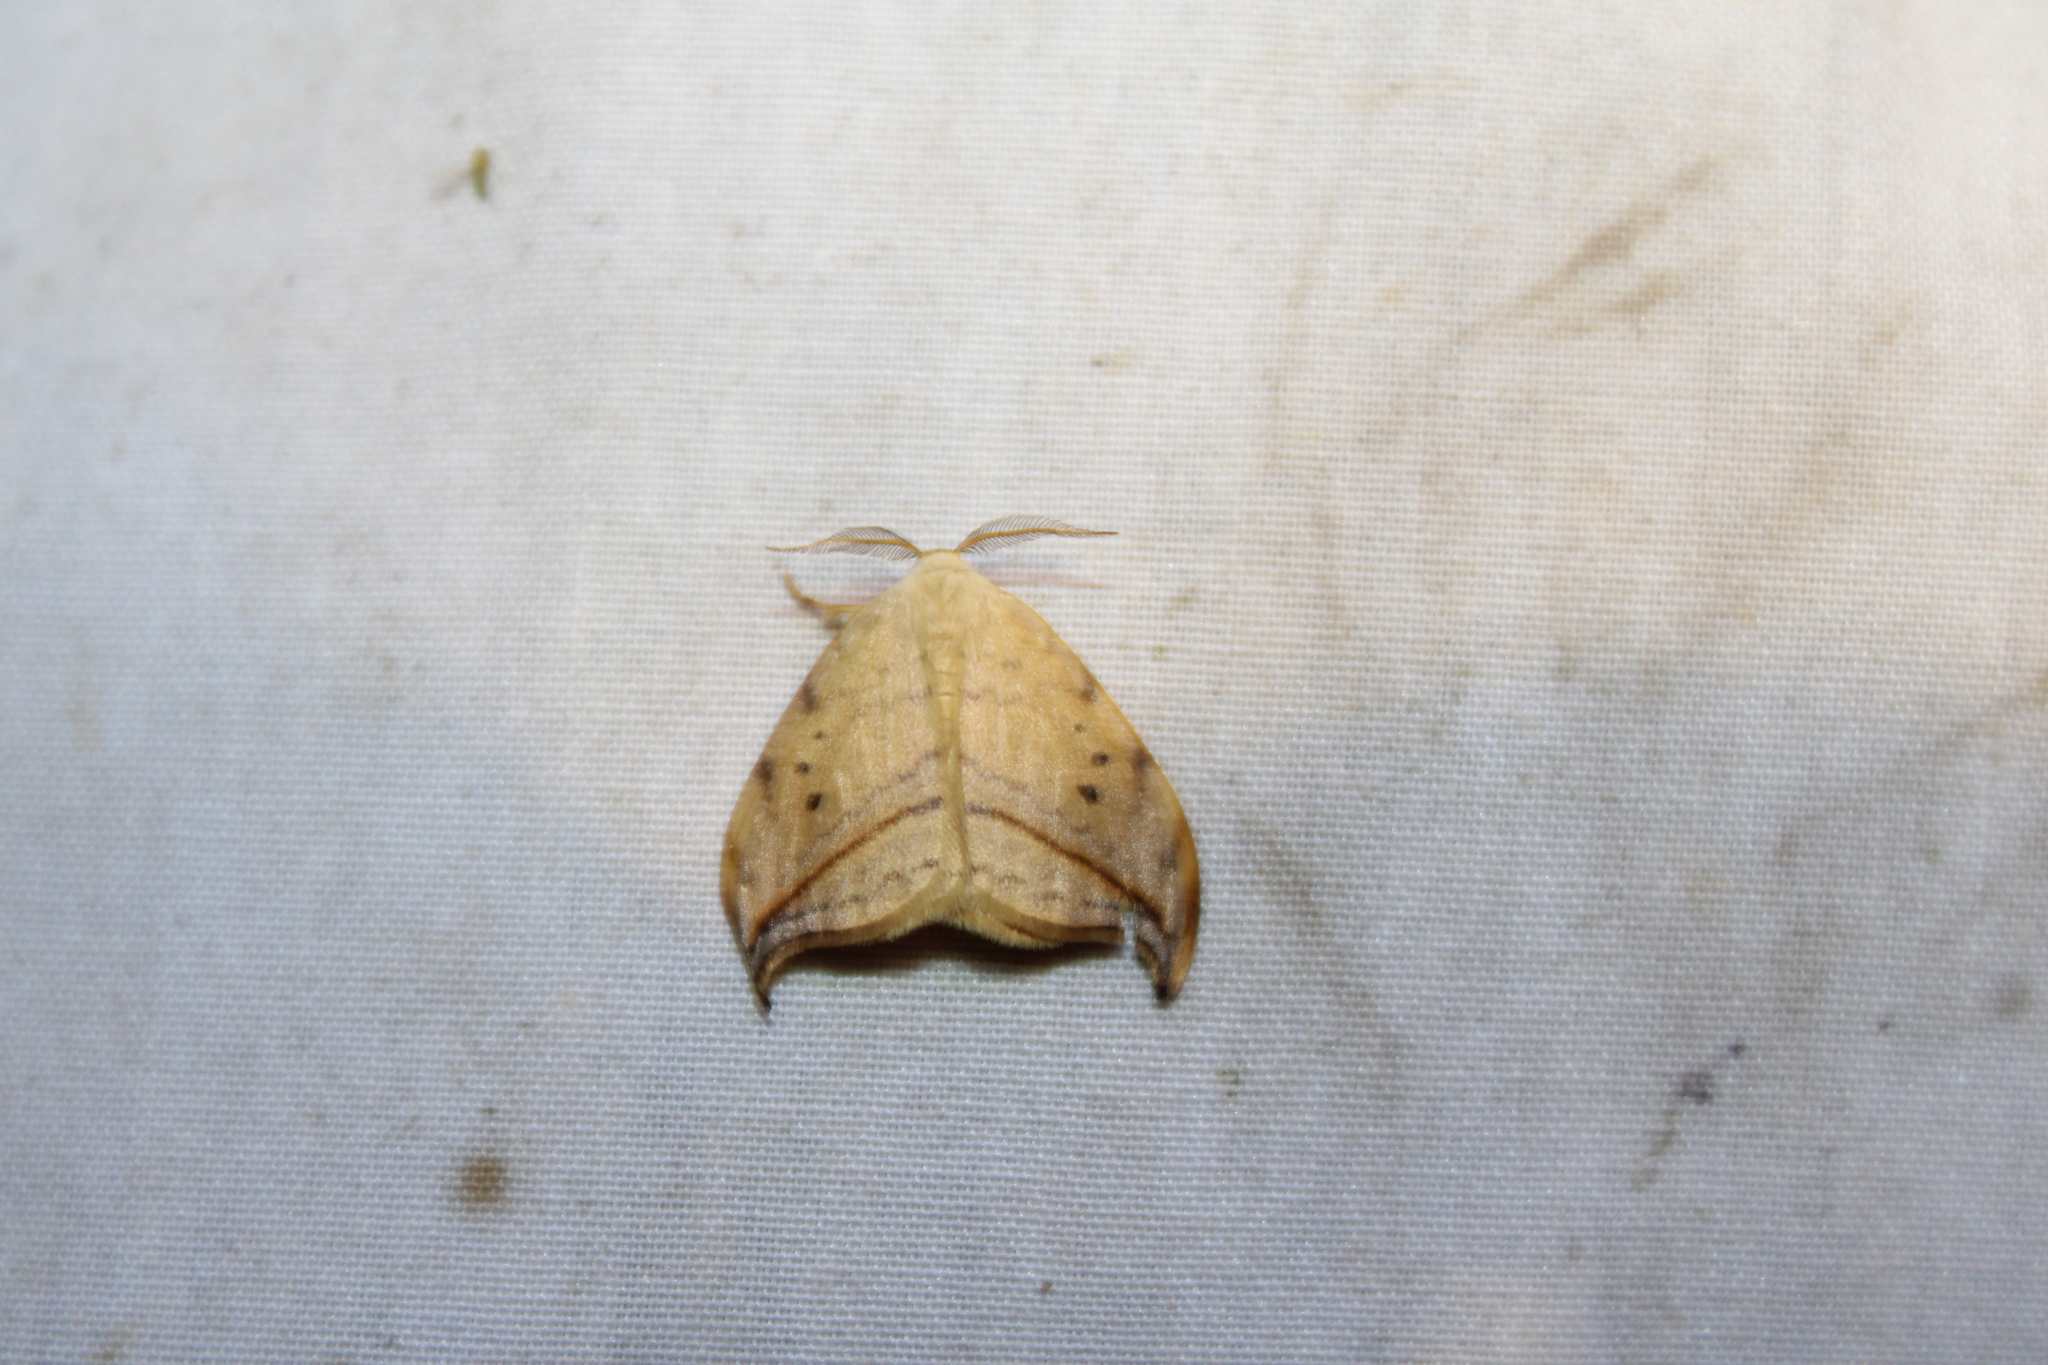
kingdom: Animalia
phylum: Arthropoda
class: Insecta
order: Lepidoptera
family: Drepanidae
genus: Drepana
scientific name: Drepana arcuata
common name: Arched hooktip moth
